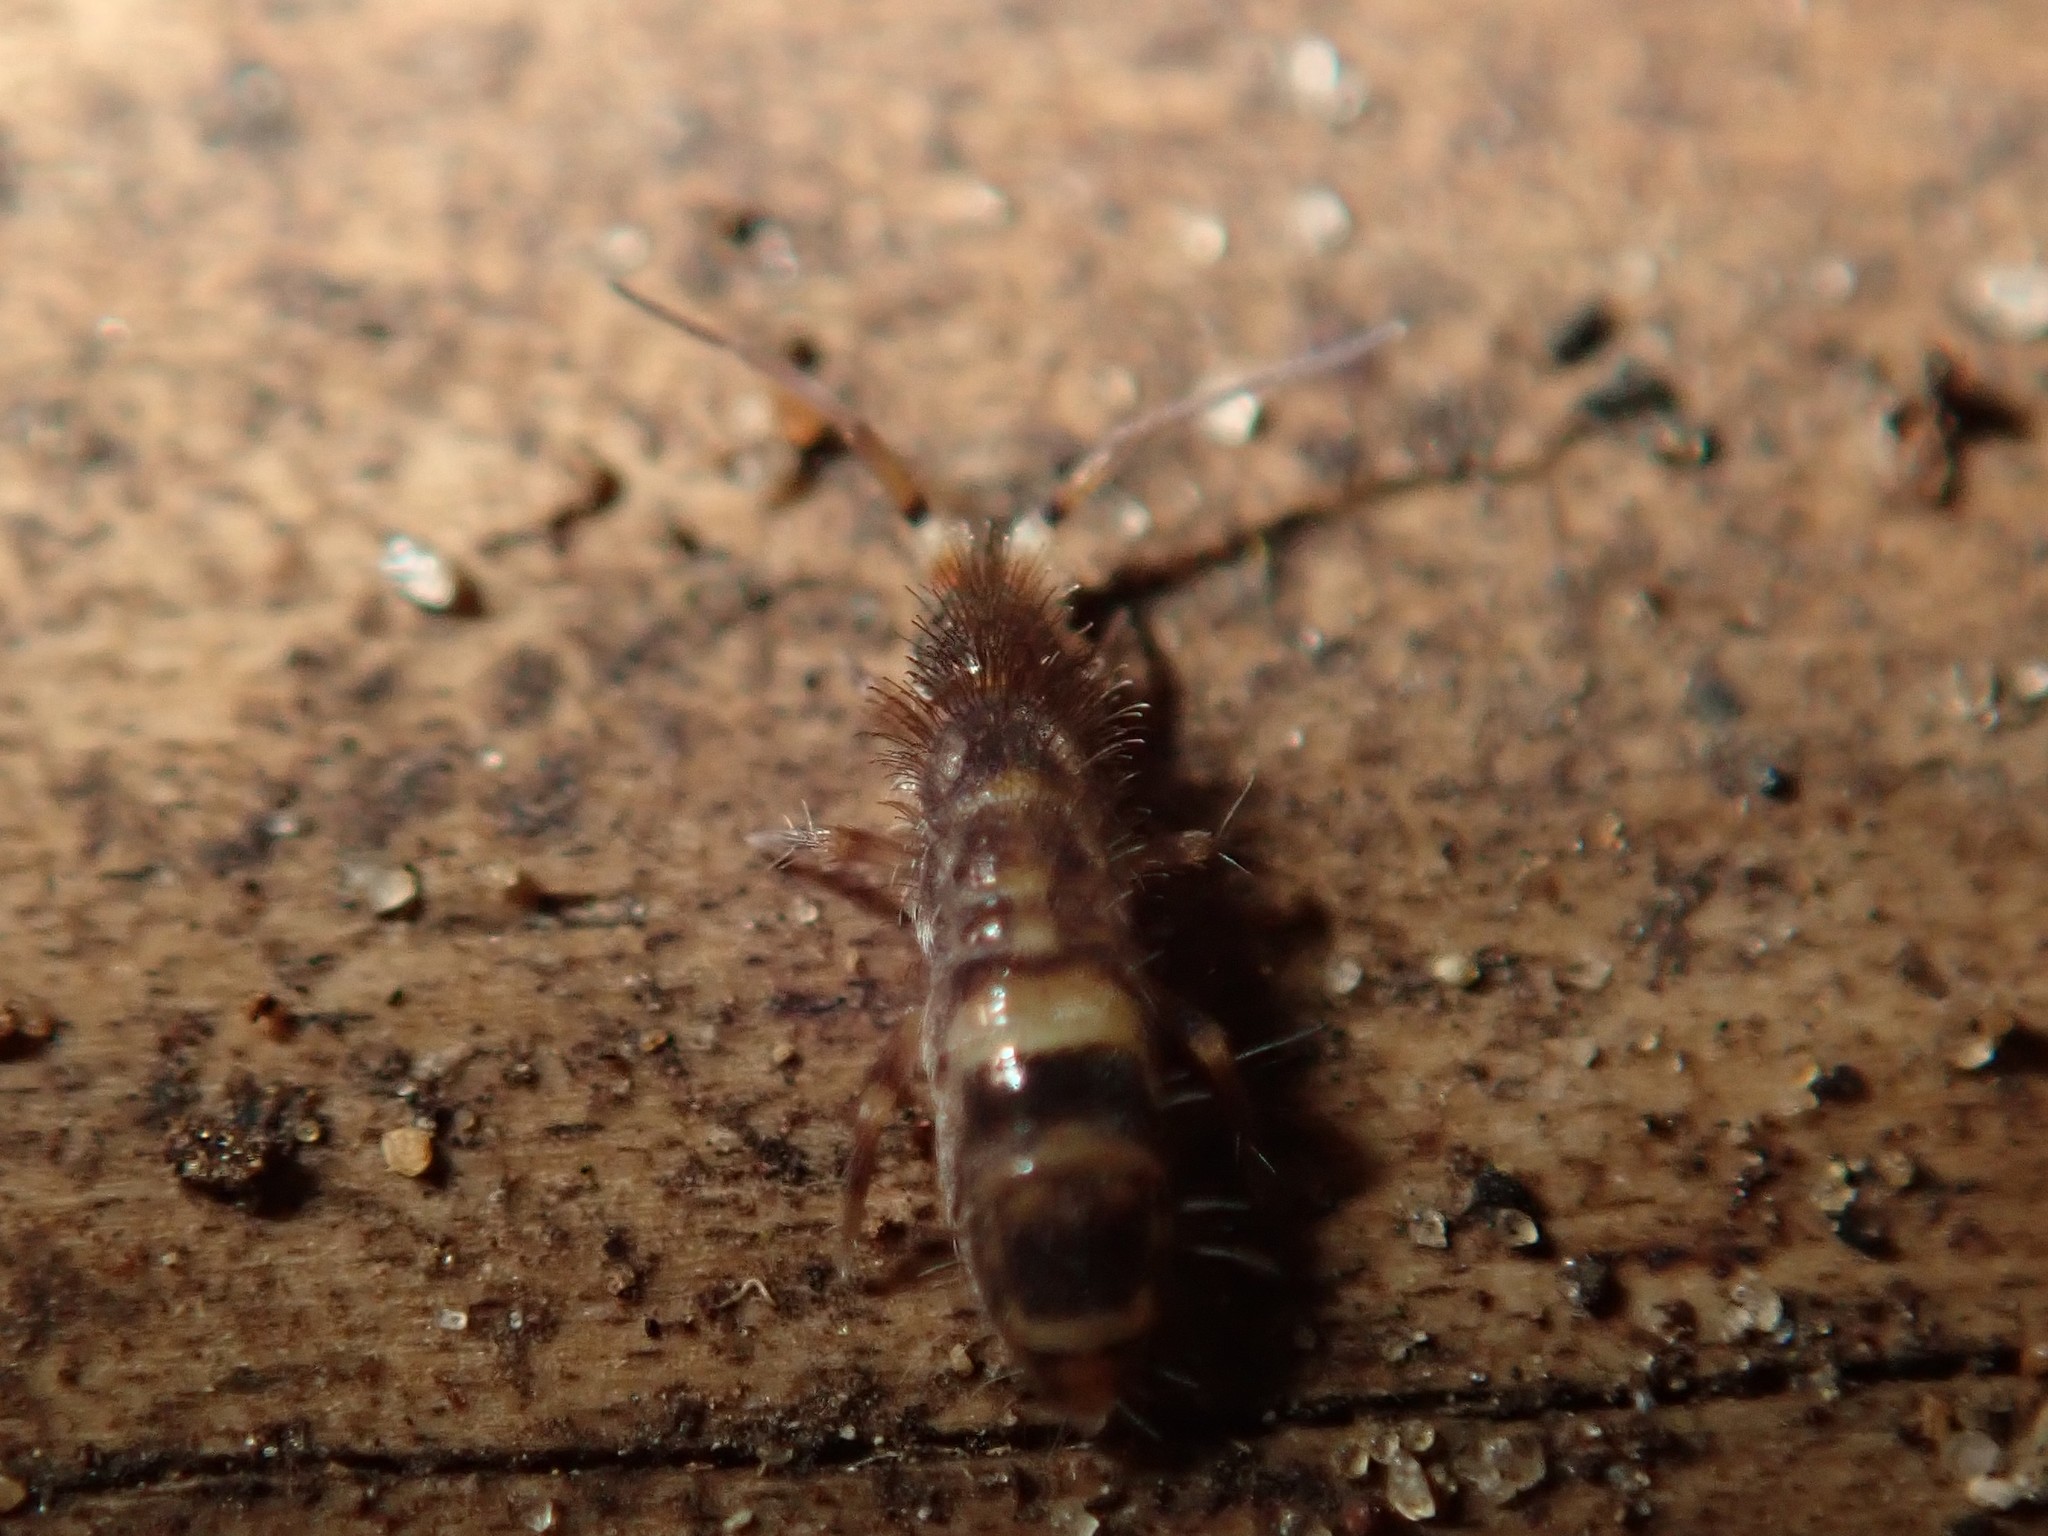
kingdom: Animalia
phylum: Arthropoda
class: Collembola
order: Entomobryomorpha
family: Orchesellidae
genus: Orchesella
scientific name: Orchesella cincta
